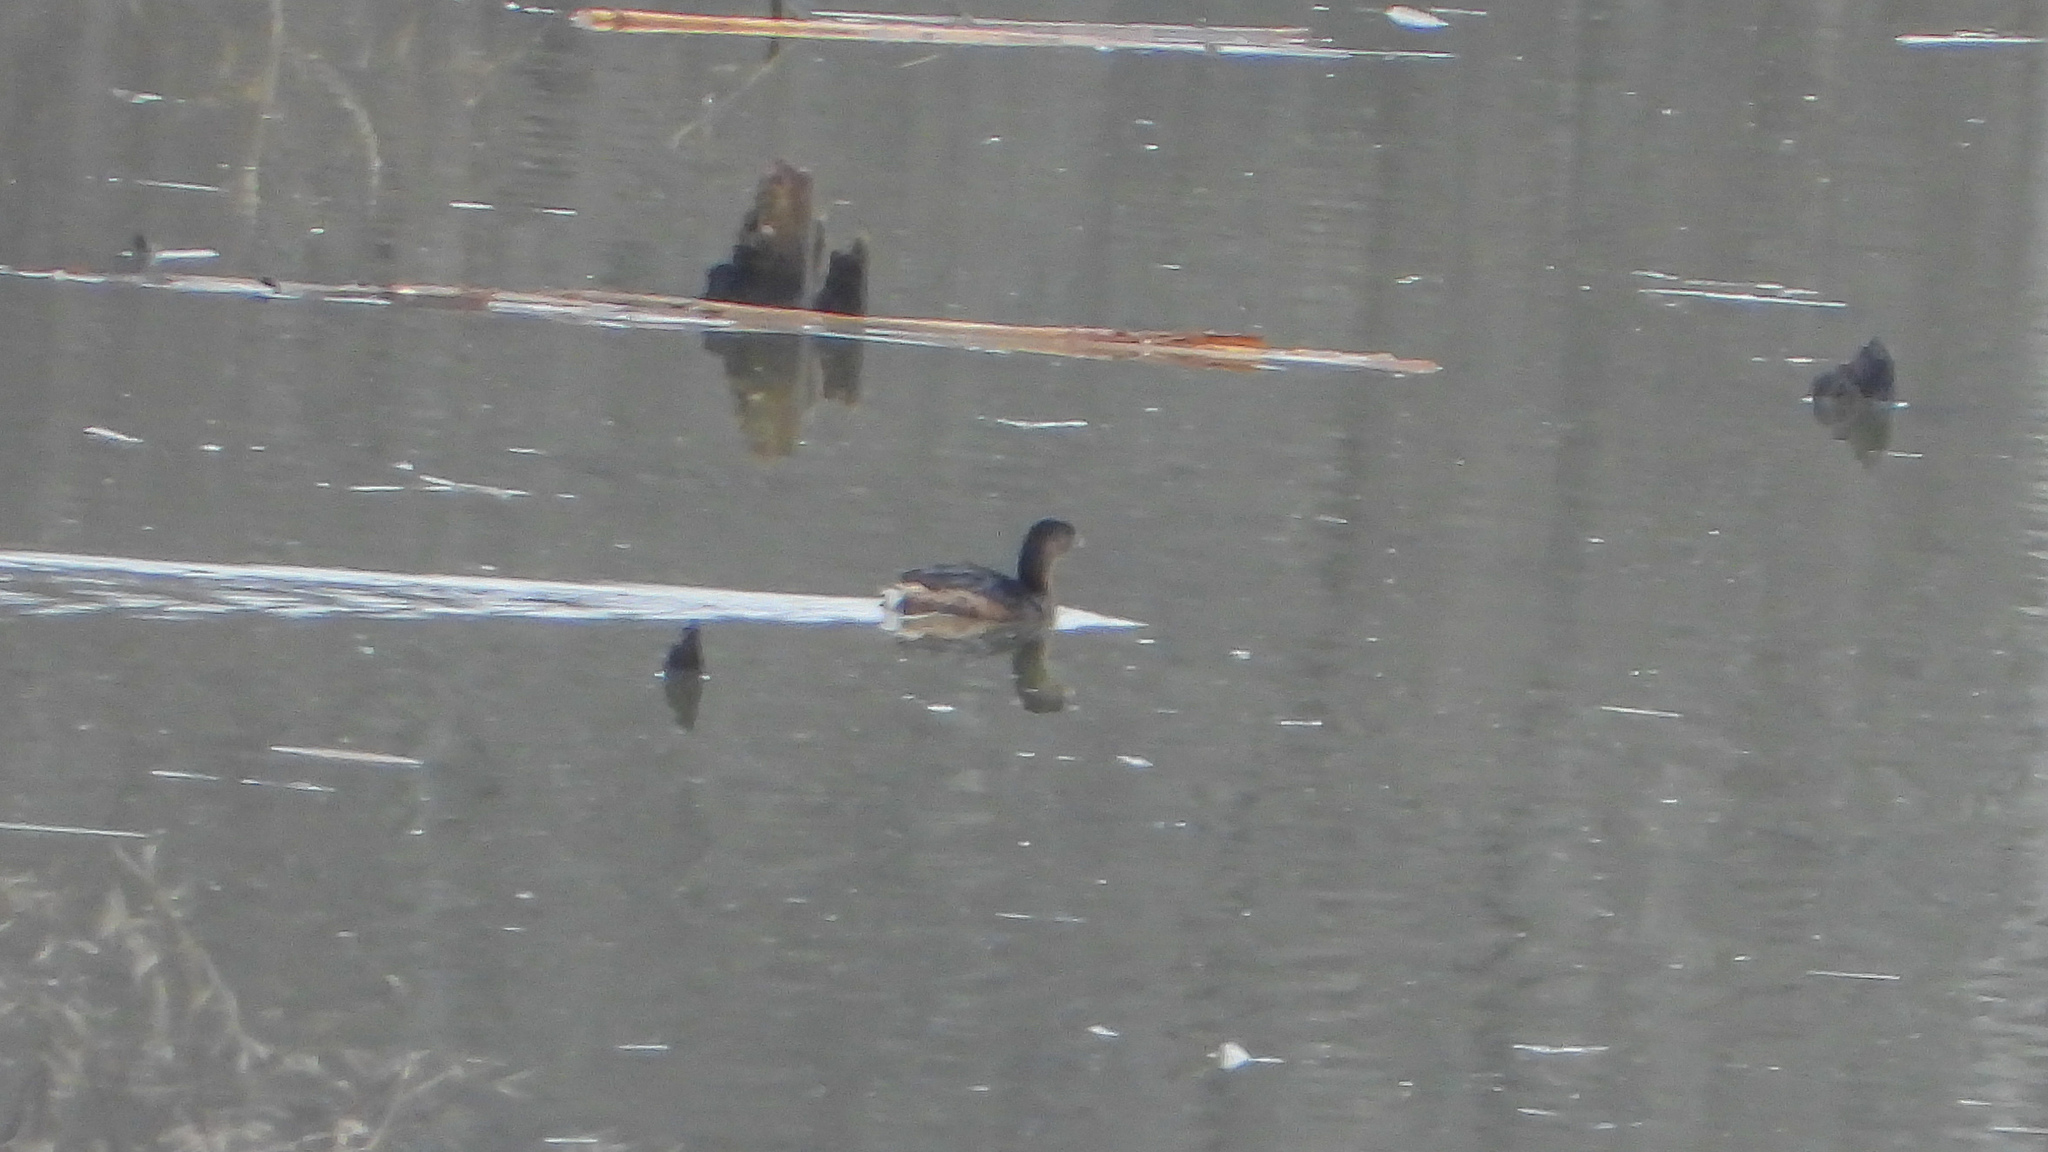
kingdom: Animalia
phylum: Chordata
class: Aves
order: Podicipediformes
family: Podicipedidae
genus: Podilymbus
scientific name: Podilymbus podiceps
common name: Pied-billed grebe
